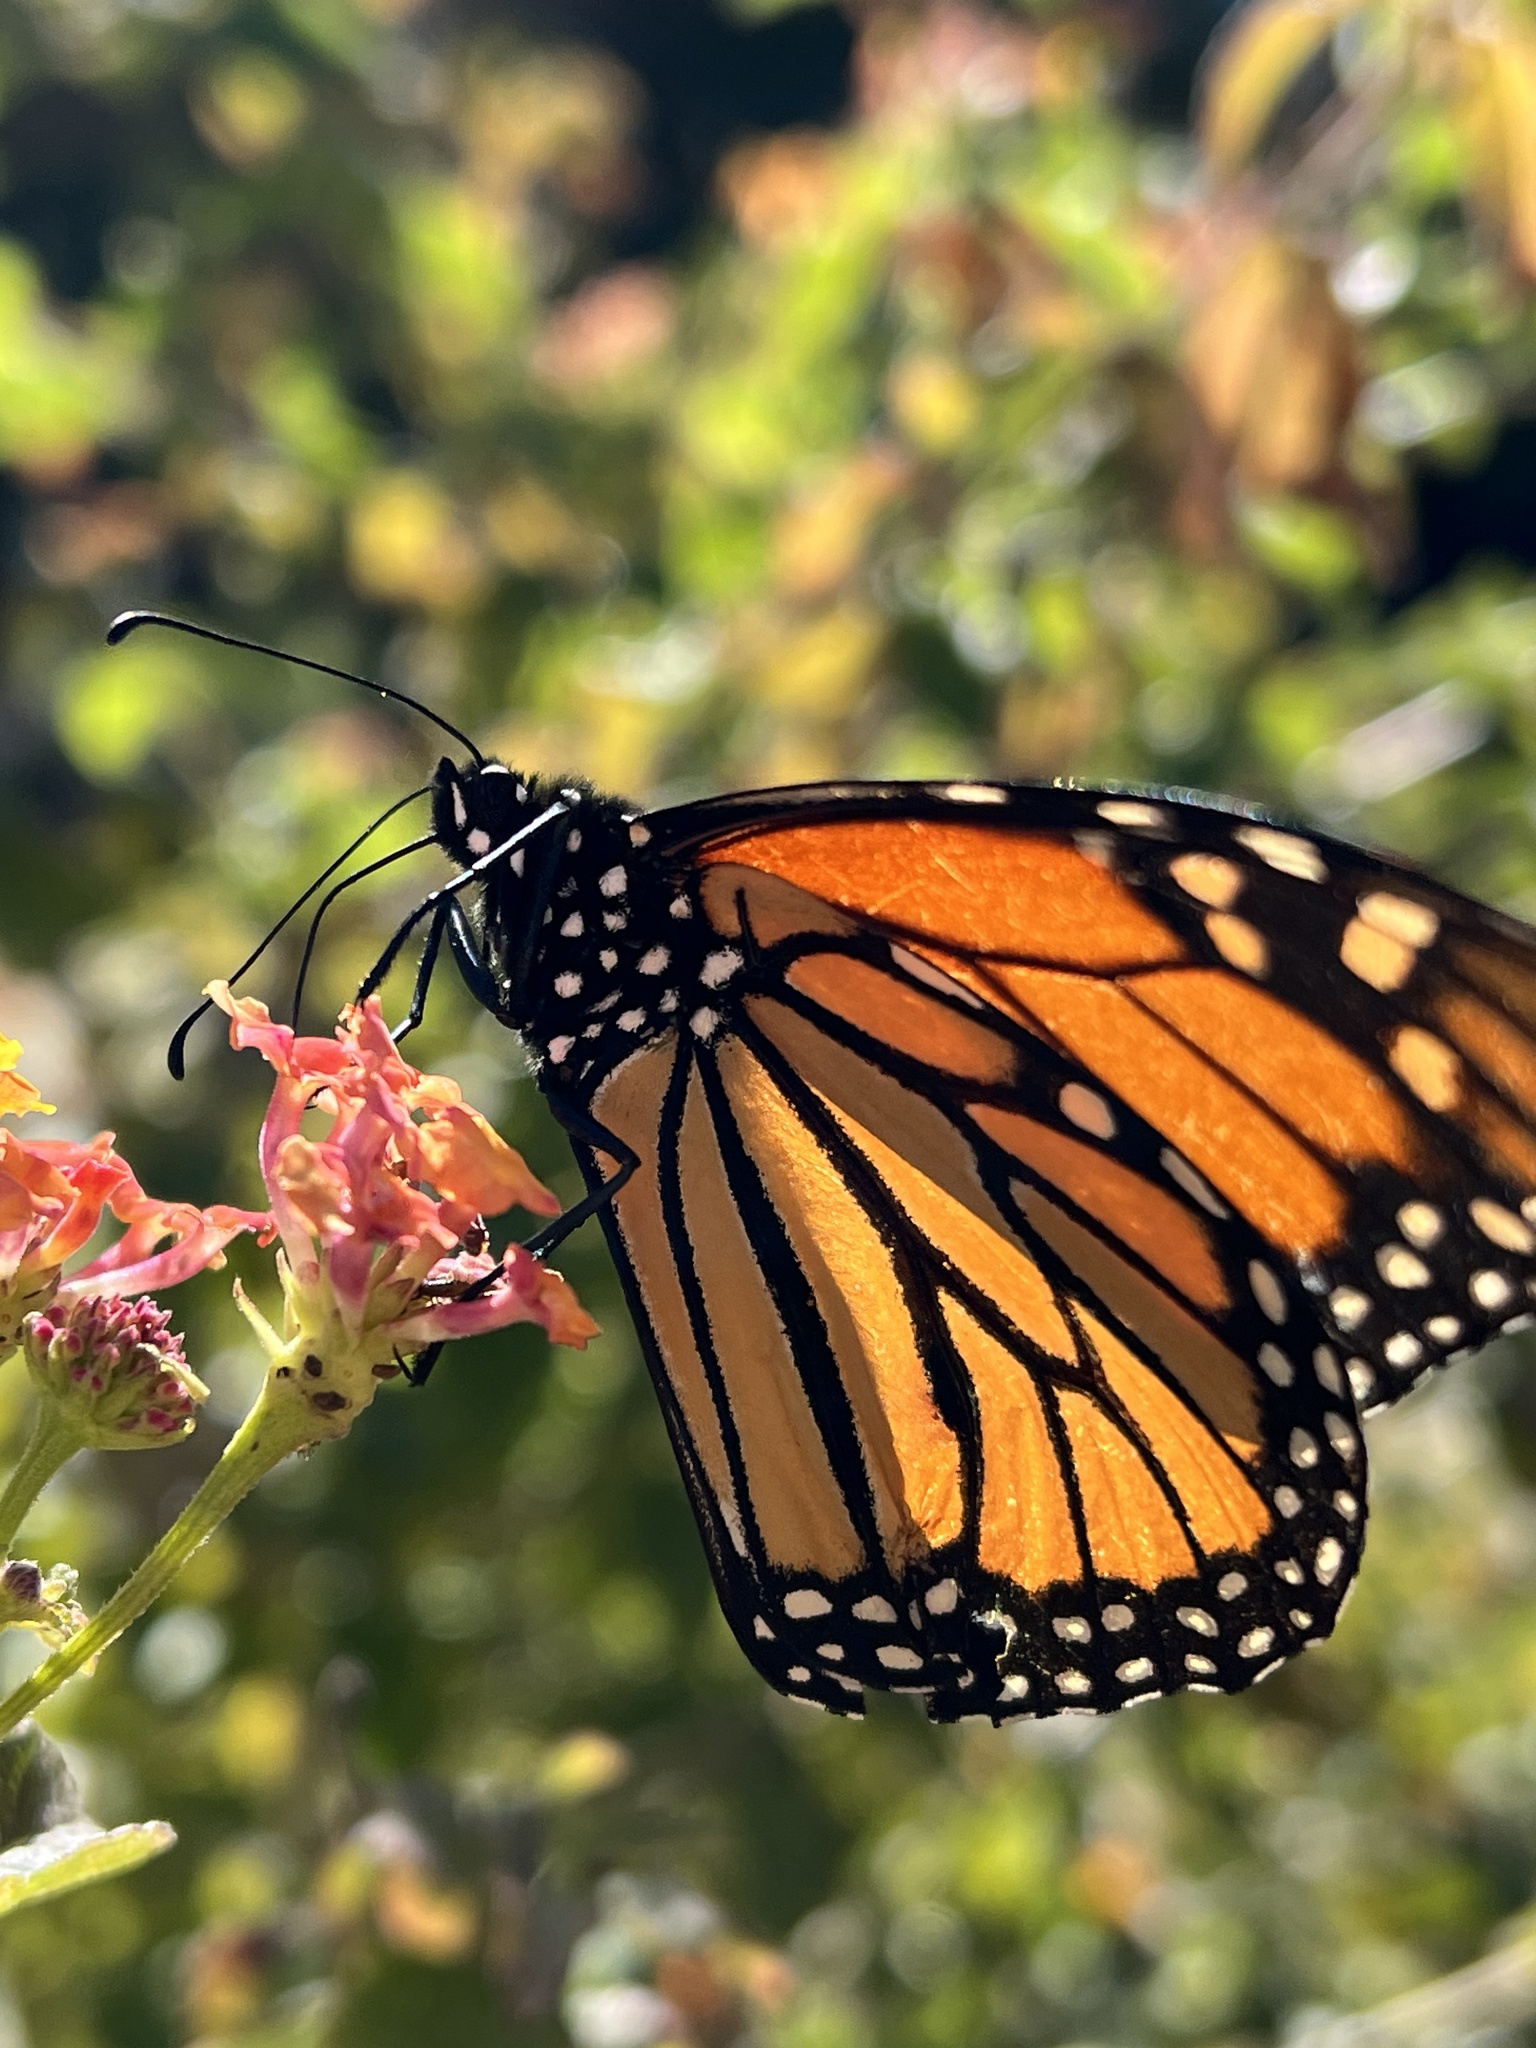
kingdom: Animalia
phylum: Arthropoda
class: Insecta
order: Lepidoptera
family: Nymphalidae
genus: Danaus
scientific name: Danaus plexippus
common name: Monarch
